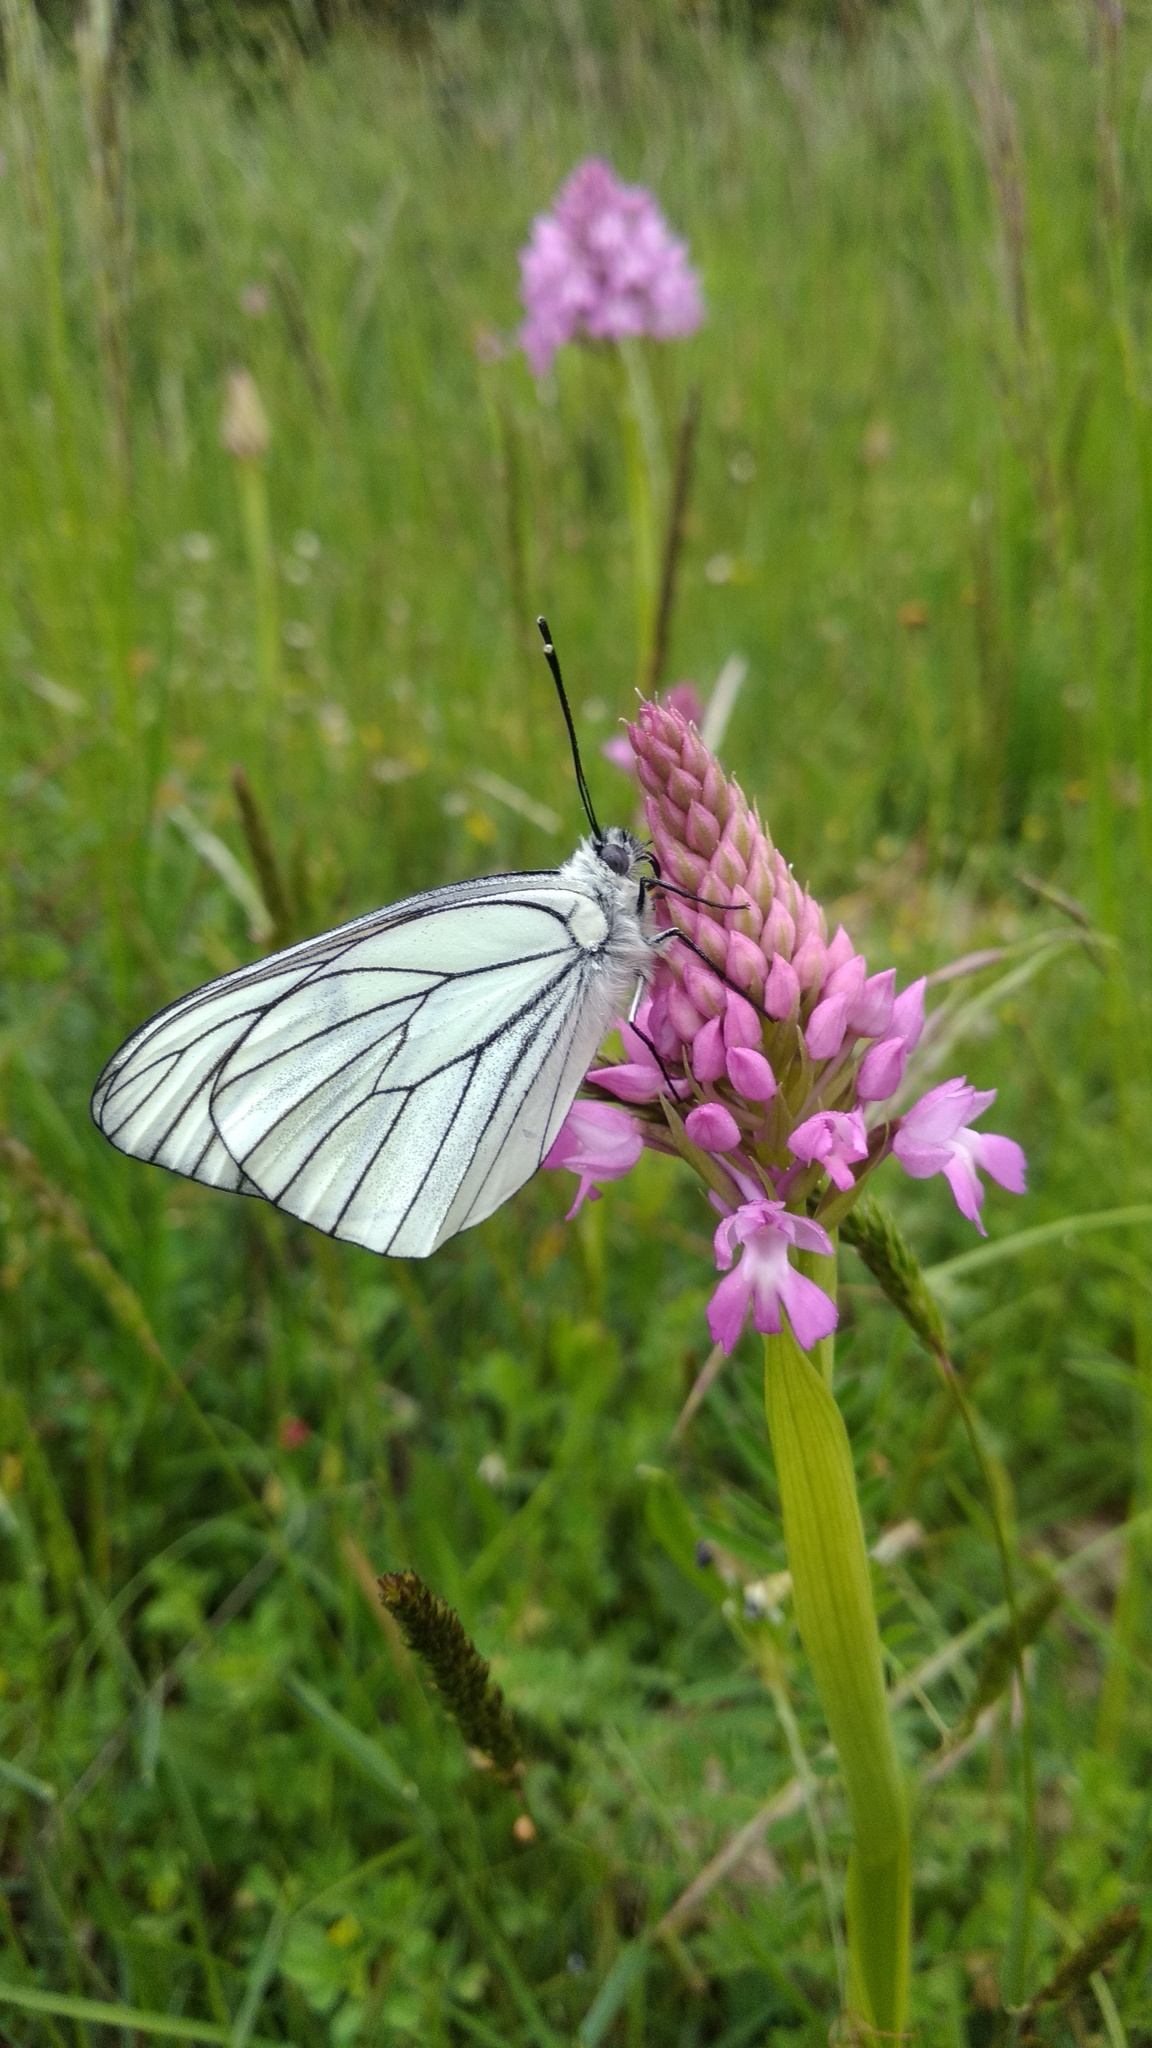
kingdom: Animalia
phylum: Arthropoda
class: Insecta
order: Lepidoptera
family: Pieridae
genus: Aporia
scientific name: Aporia crataegi
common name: Black-veined white
